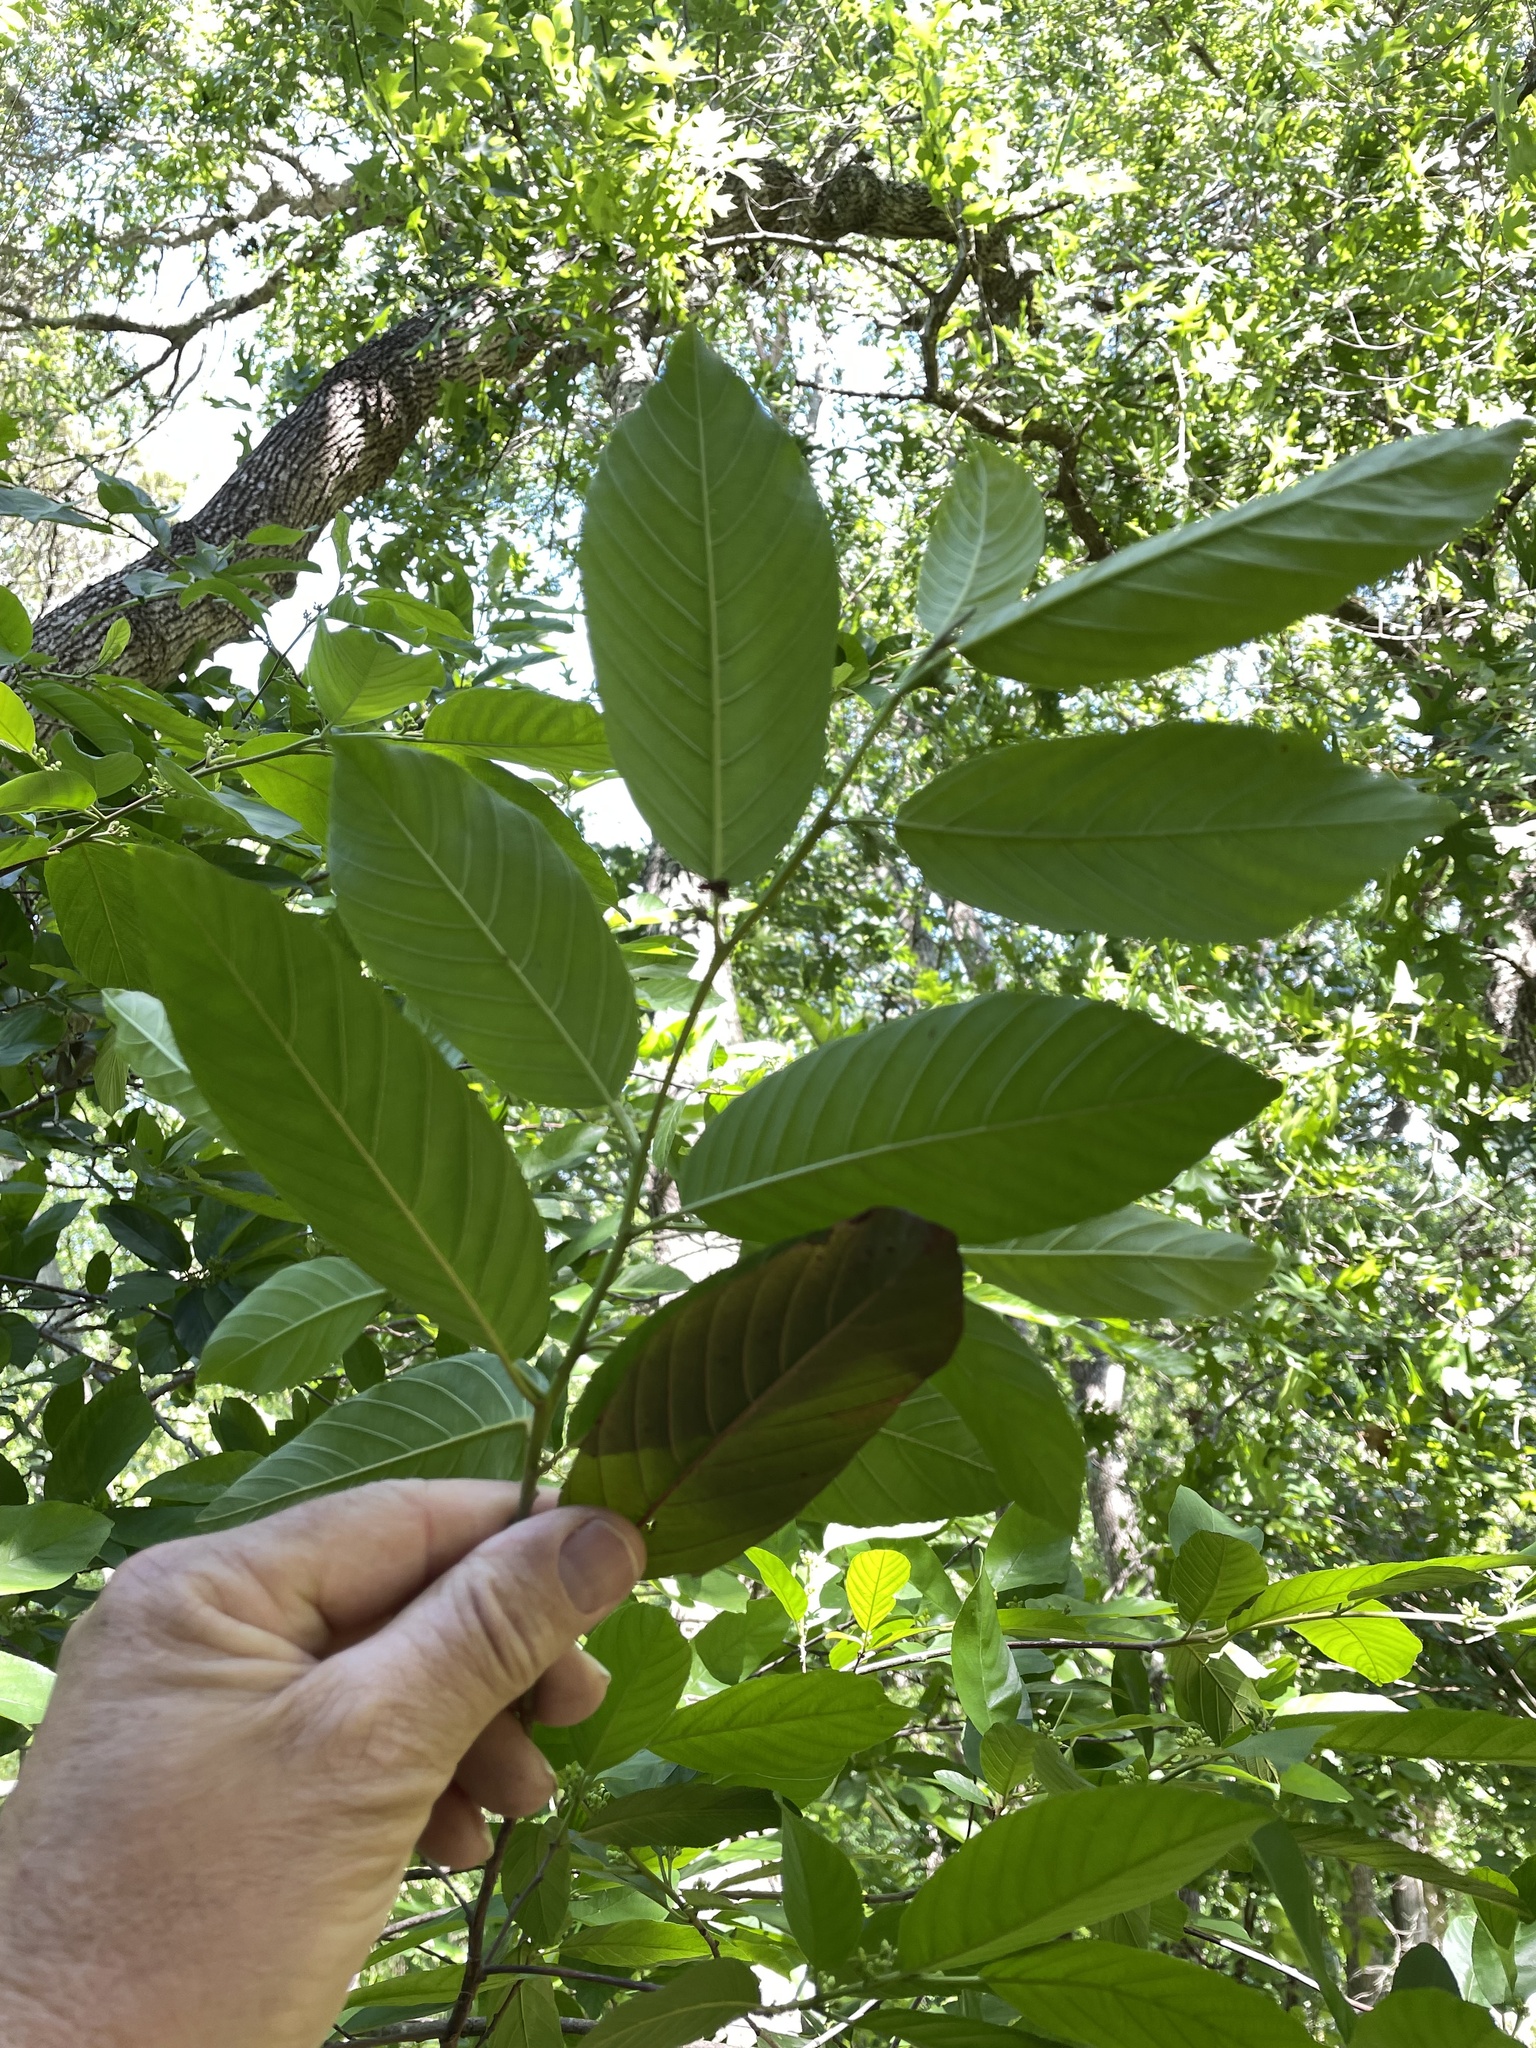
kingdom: Plantae
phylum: Tracheophyta
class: Magnoliopsida
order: Rosales
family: Rhamnaceae
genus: Frangula
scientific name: Frangula caroliniana
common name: Carolina buckthorn
